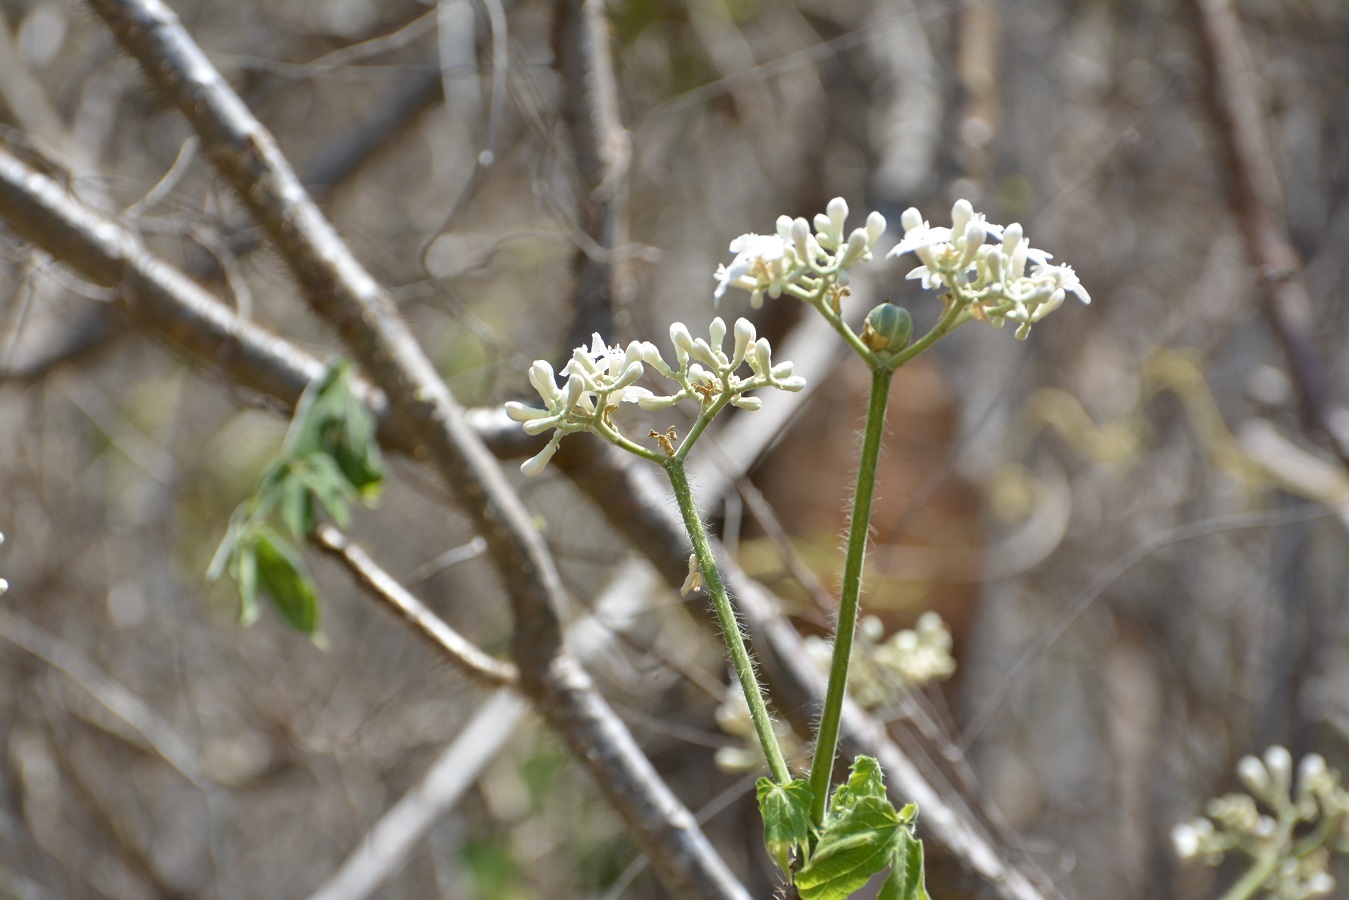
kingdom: Plantae
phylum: Tracheophyta
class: Magnoliopsida
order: Malpighiales
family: Euphorbiaceae
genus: Cnidoscolus
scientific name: Cnidoscolus aconitifolius
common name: Cabbage-star
